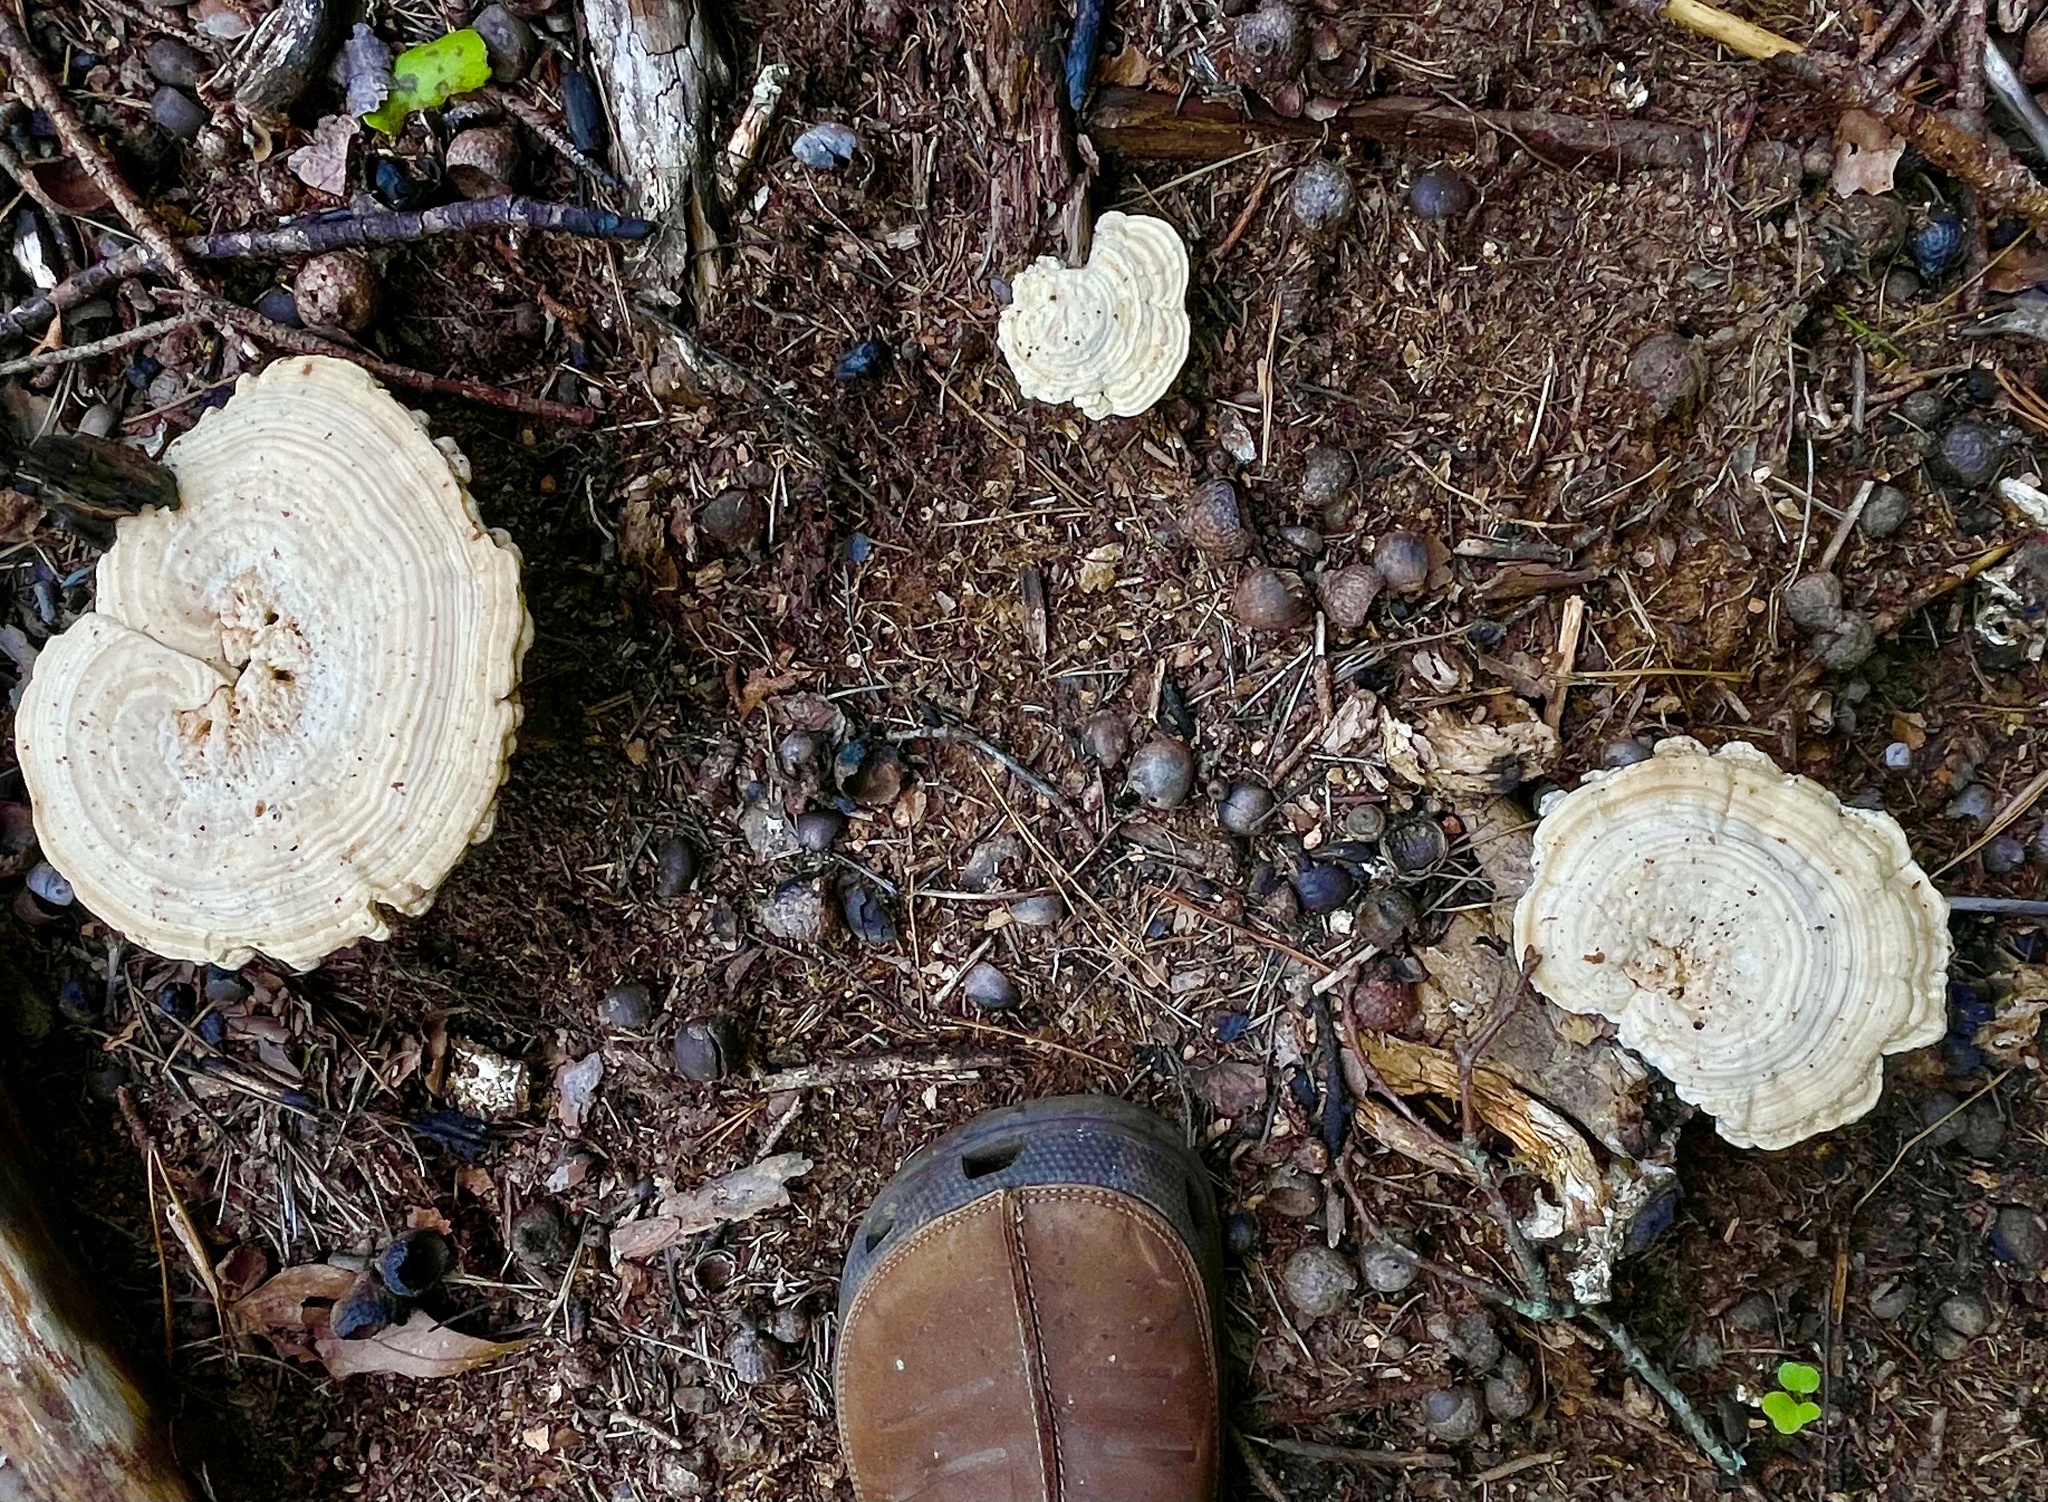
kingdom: Fungi
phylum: Basidiomycota
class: Agaricomycetes
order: Polyporales
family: Polyporaceae
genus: Microporellus
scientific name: Microporellus dealbatus
